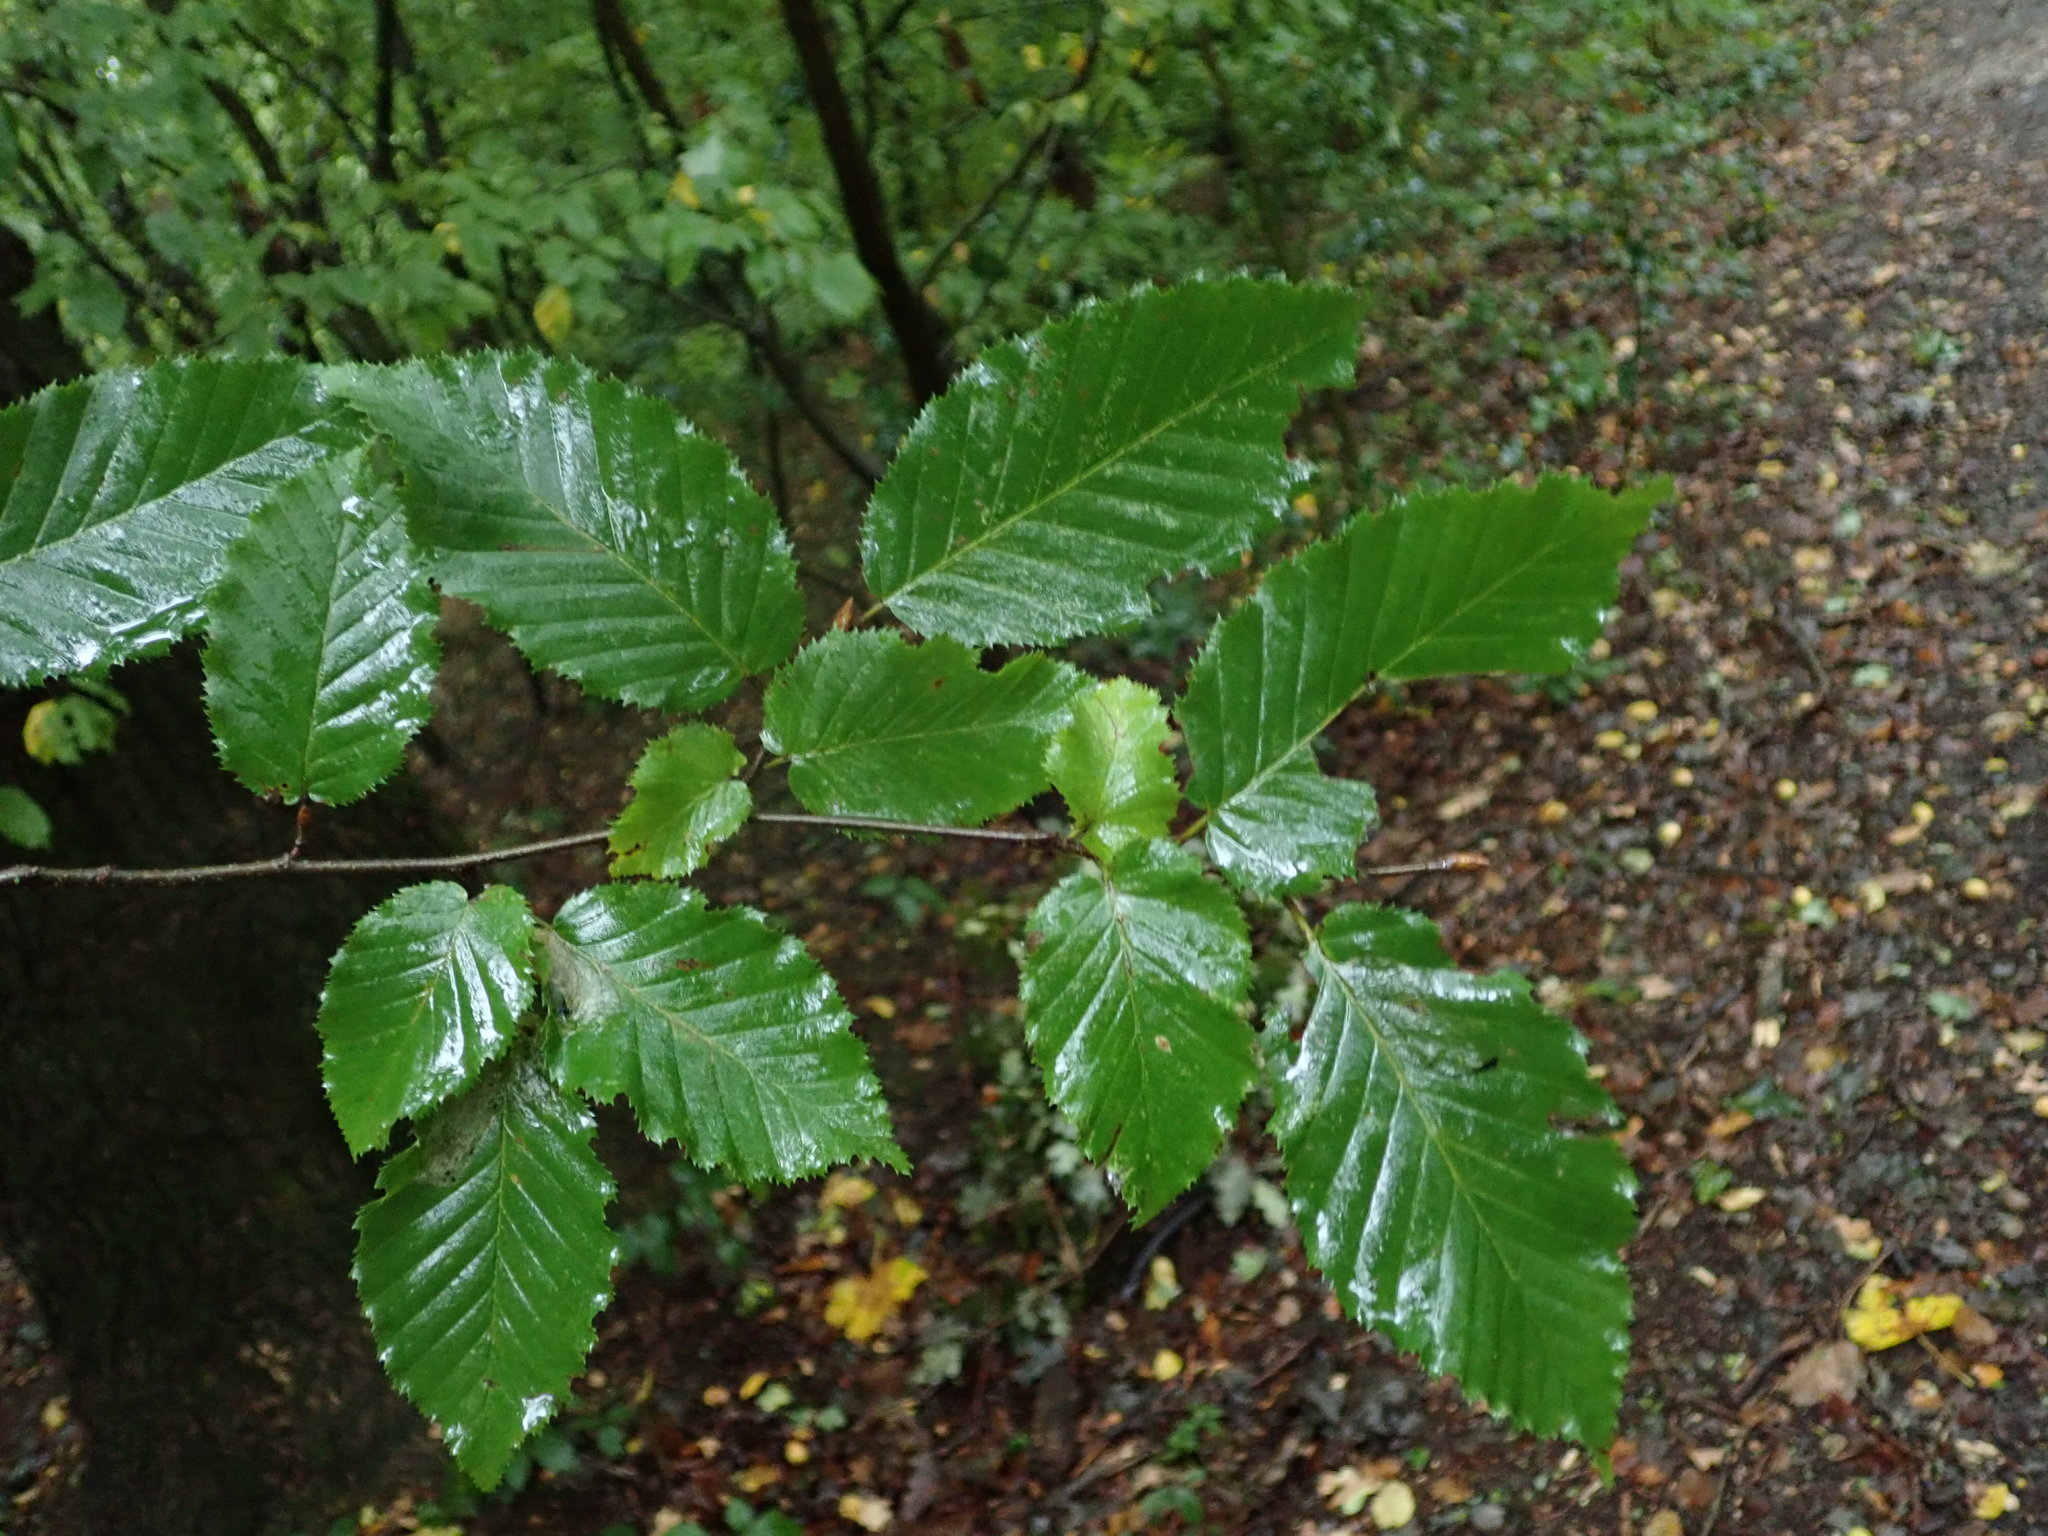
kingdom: Plantae
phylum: Tracheophyta
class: Magnoliopsida
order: Fagales
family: Betulaceae
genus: Carpinus
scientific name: Carpinus betulus
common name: Hornbeam
